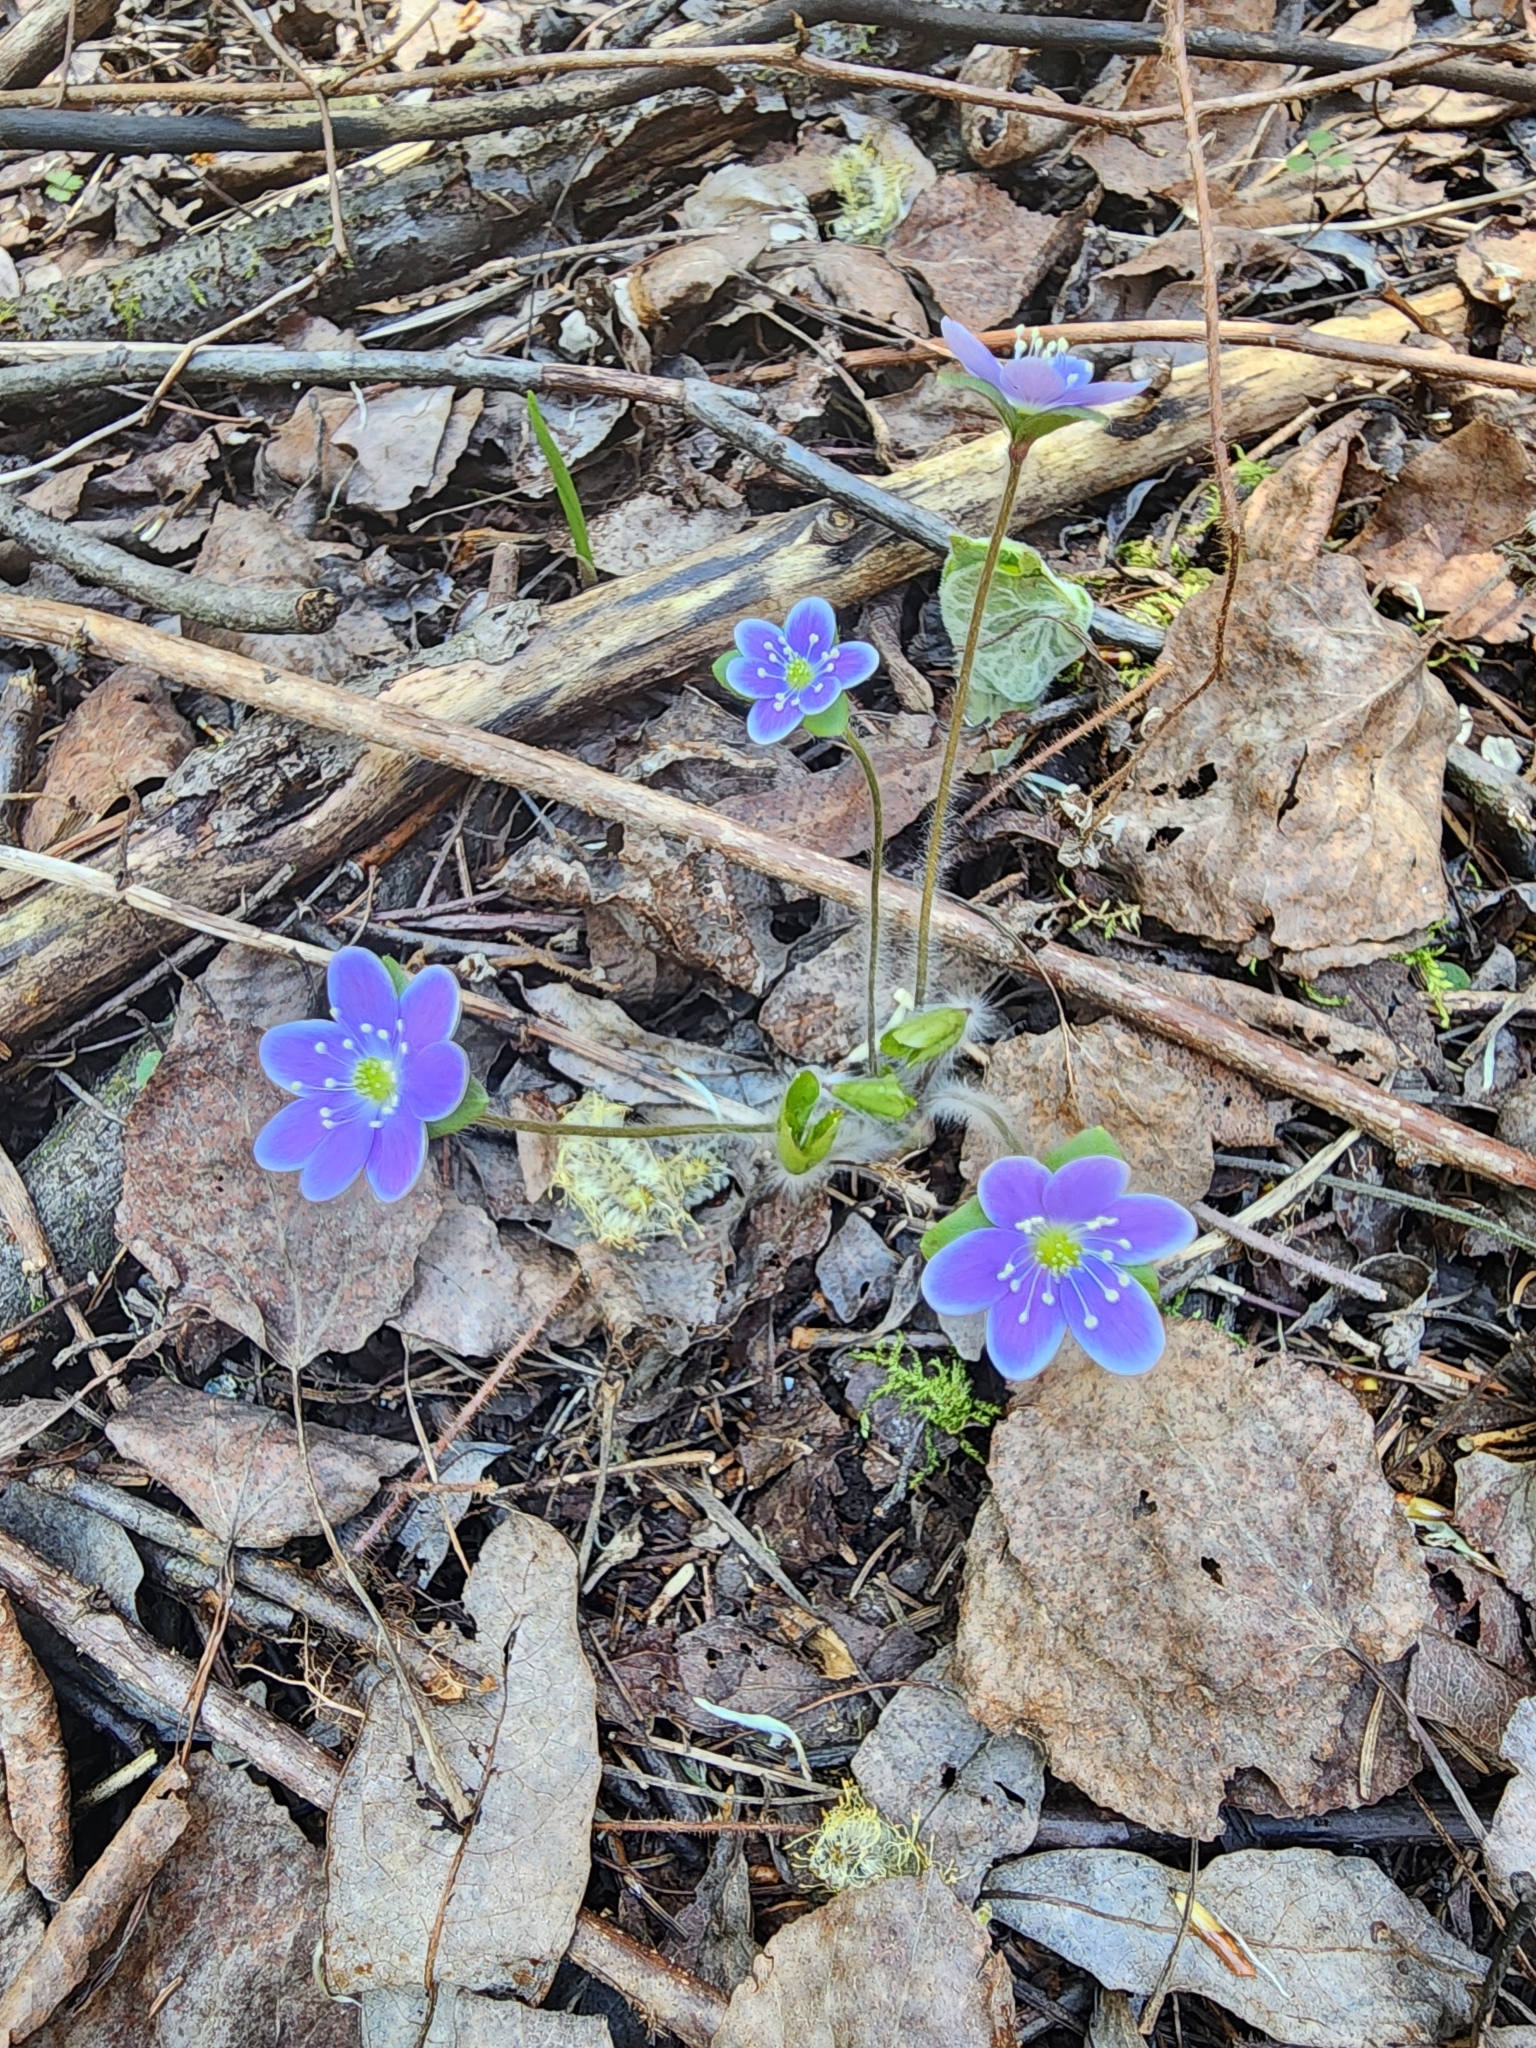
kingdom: Plantae
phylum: Tracheophyta
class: Magnoliopsida
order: Ranunculales
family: Ranunculaceae
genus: Hepatica
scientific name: Hepatica americana
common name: American hepatica
